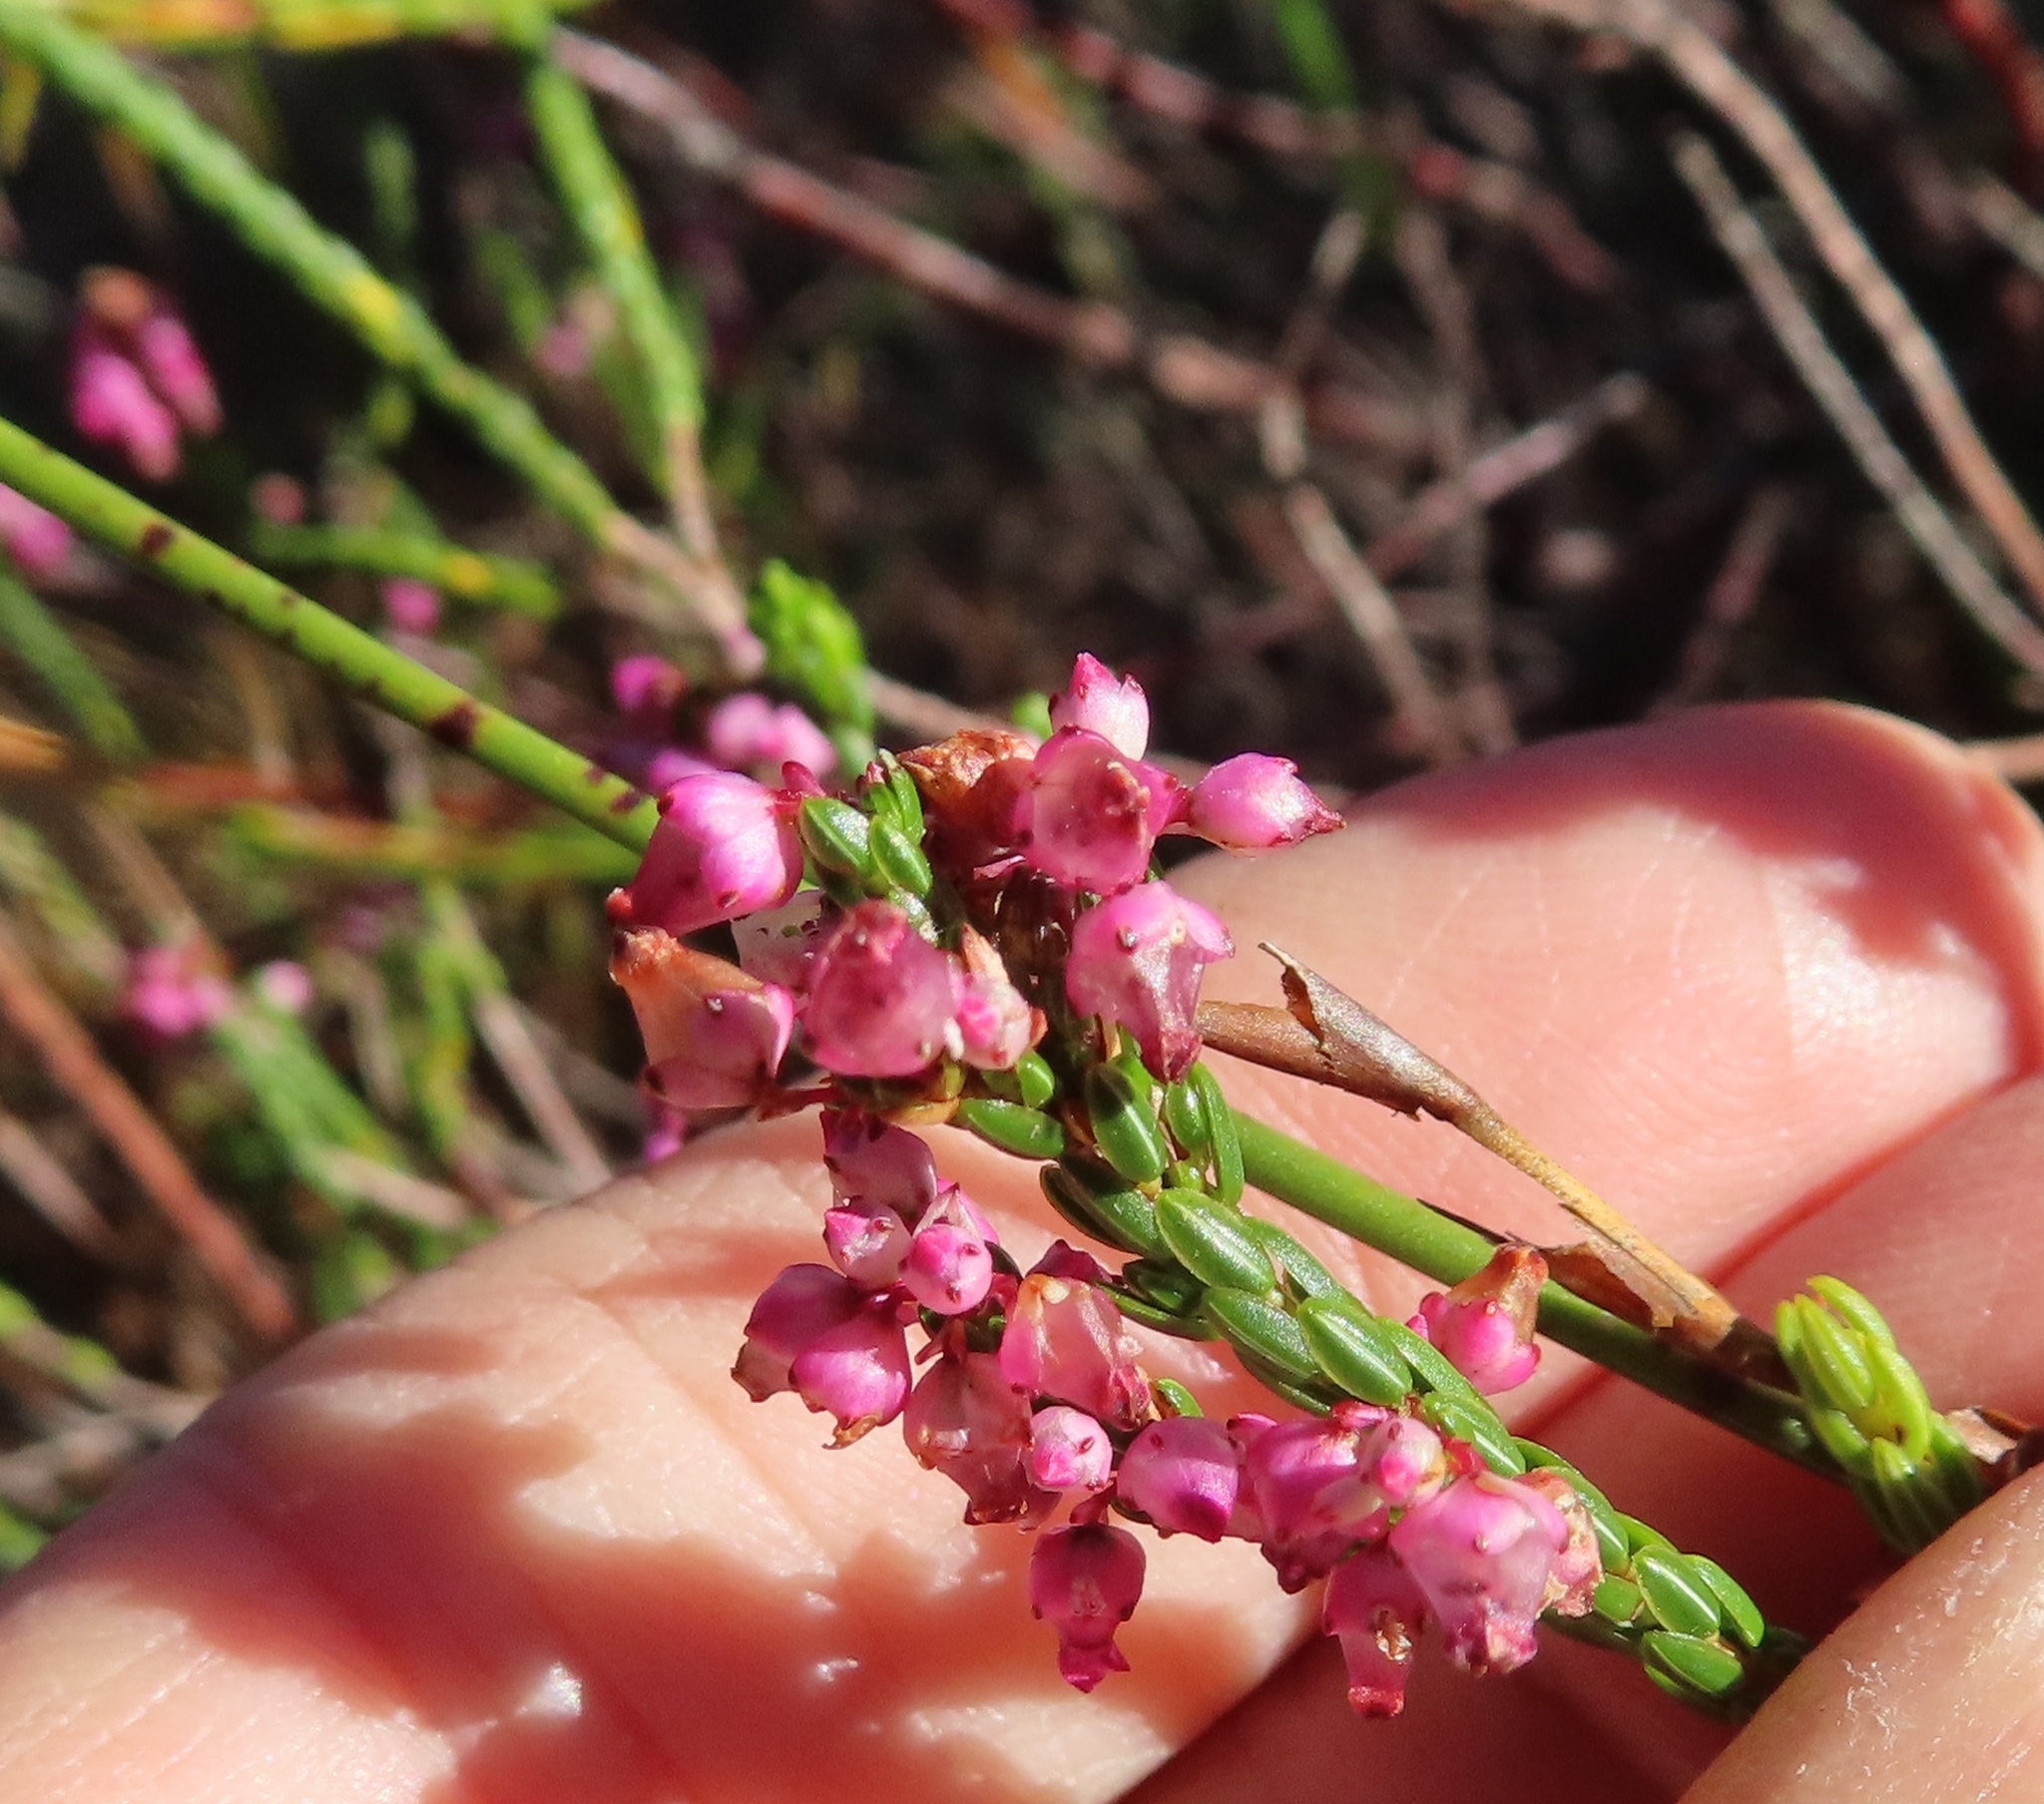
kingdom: Plantae
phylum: Tracheophyta
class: Magnoliopsida
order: Ericales
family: Ericaceae
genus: Erica
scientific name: Erica rhopalantha
